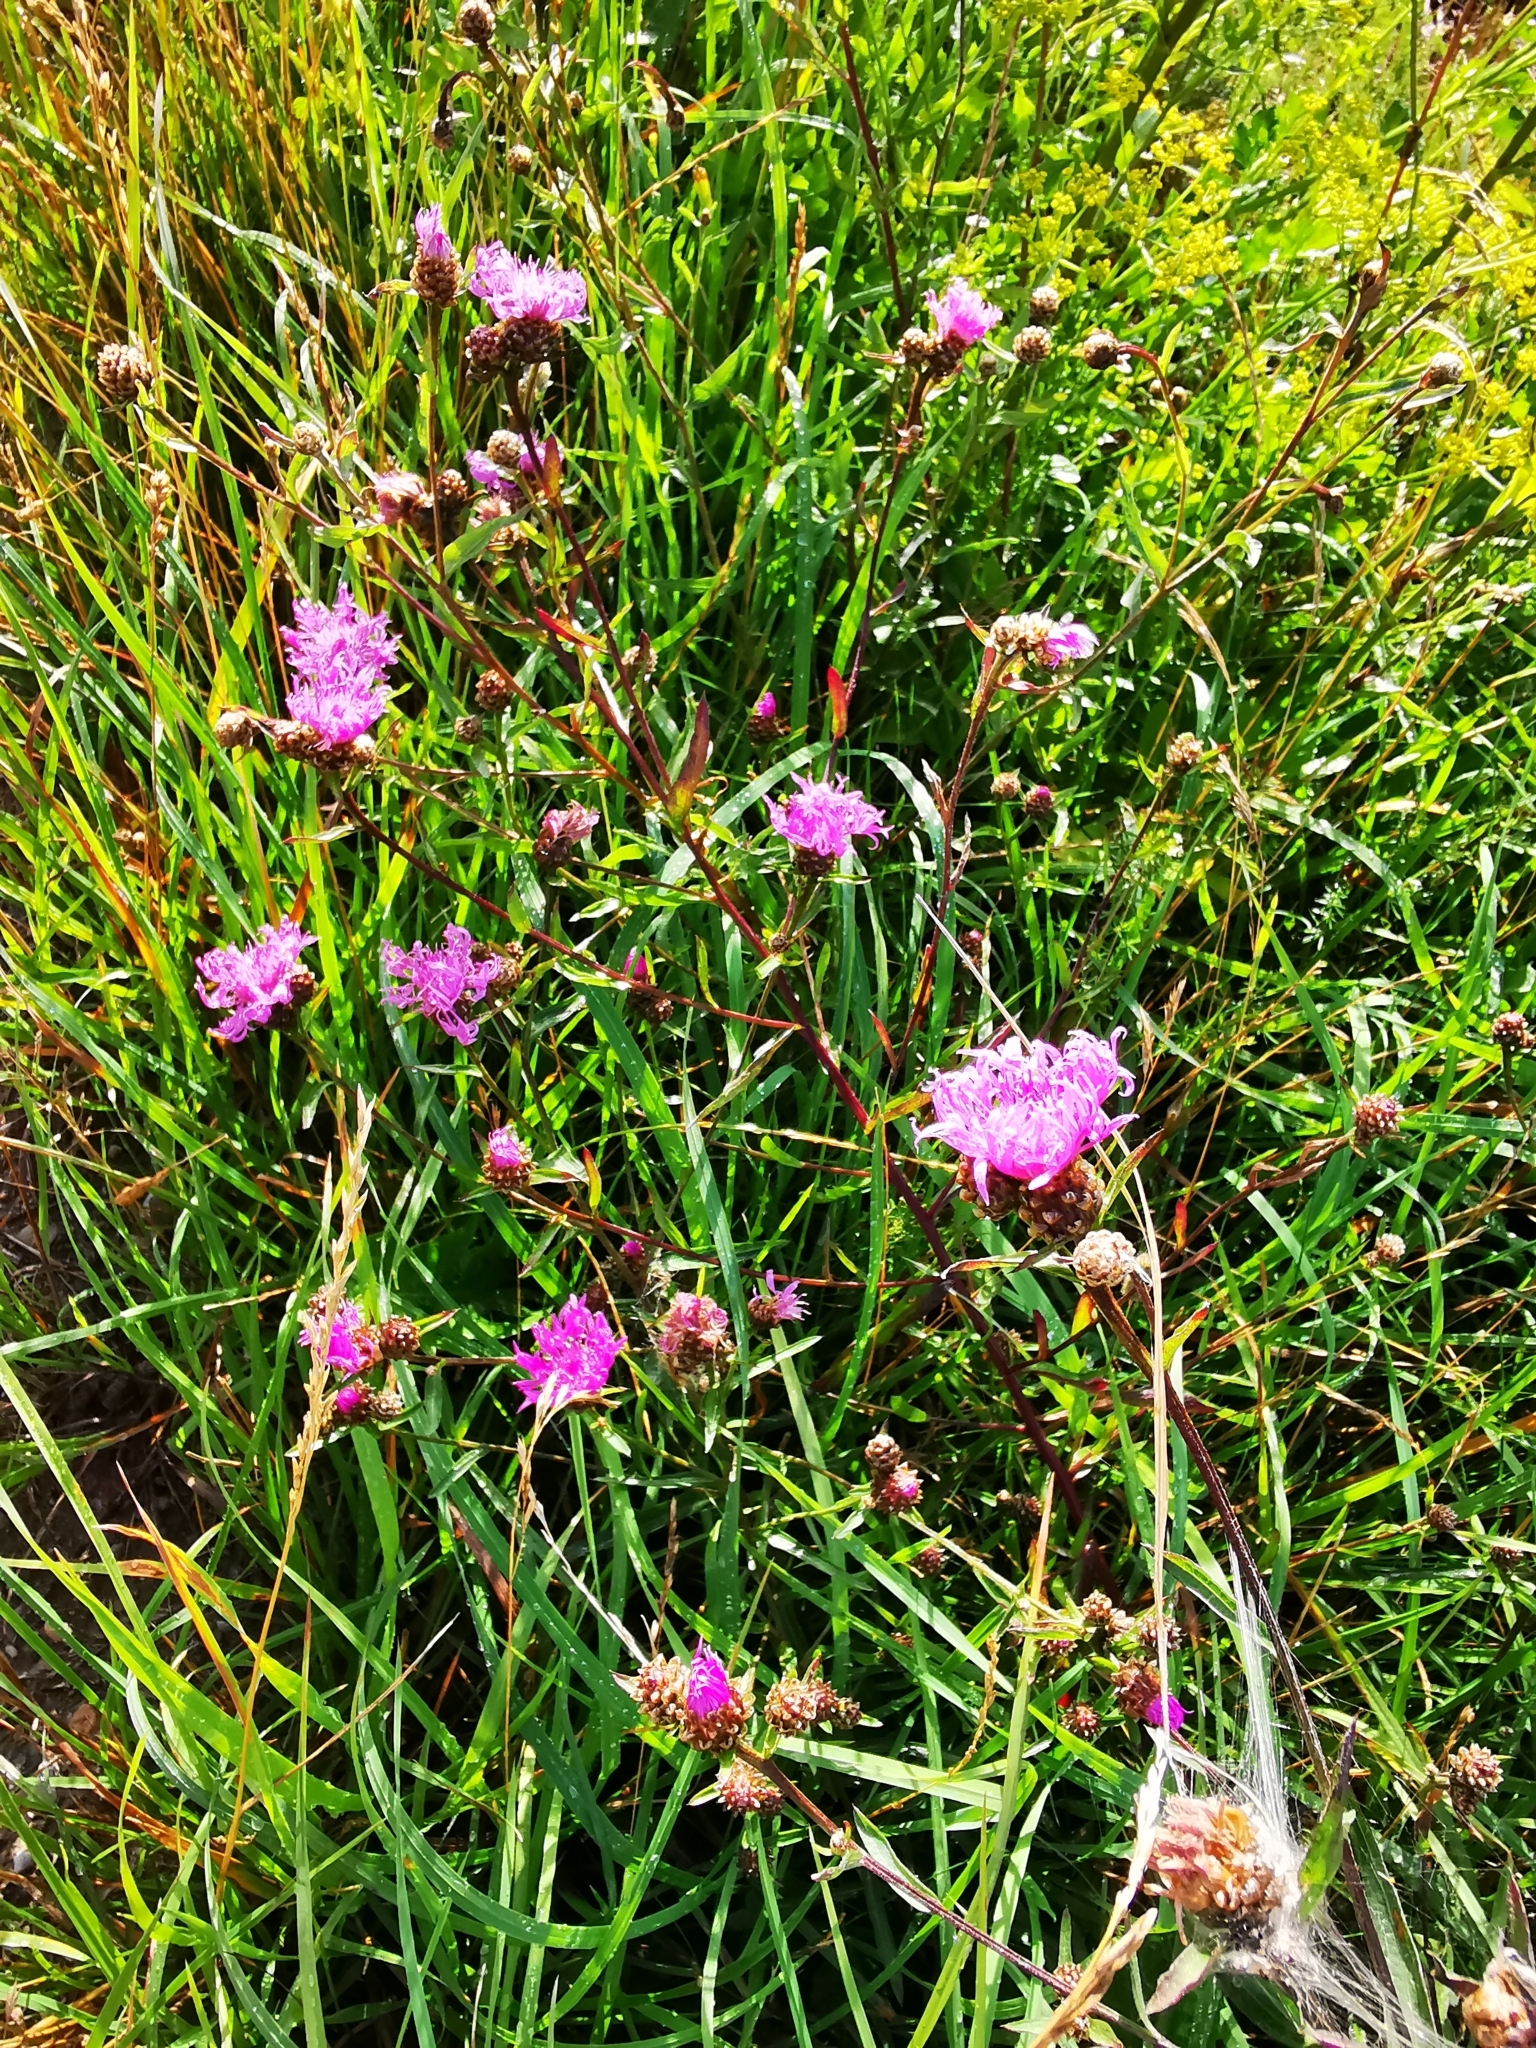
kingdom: Plantae
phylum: Tracheophyta
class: Magnoliopsida
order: Asterales
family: Asteraceae
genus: Centaurea
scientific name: Centaurea jacea
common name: Brown knapweed
